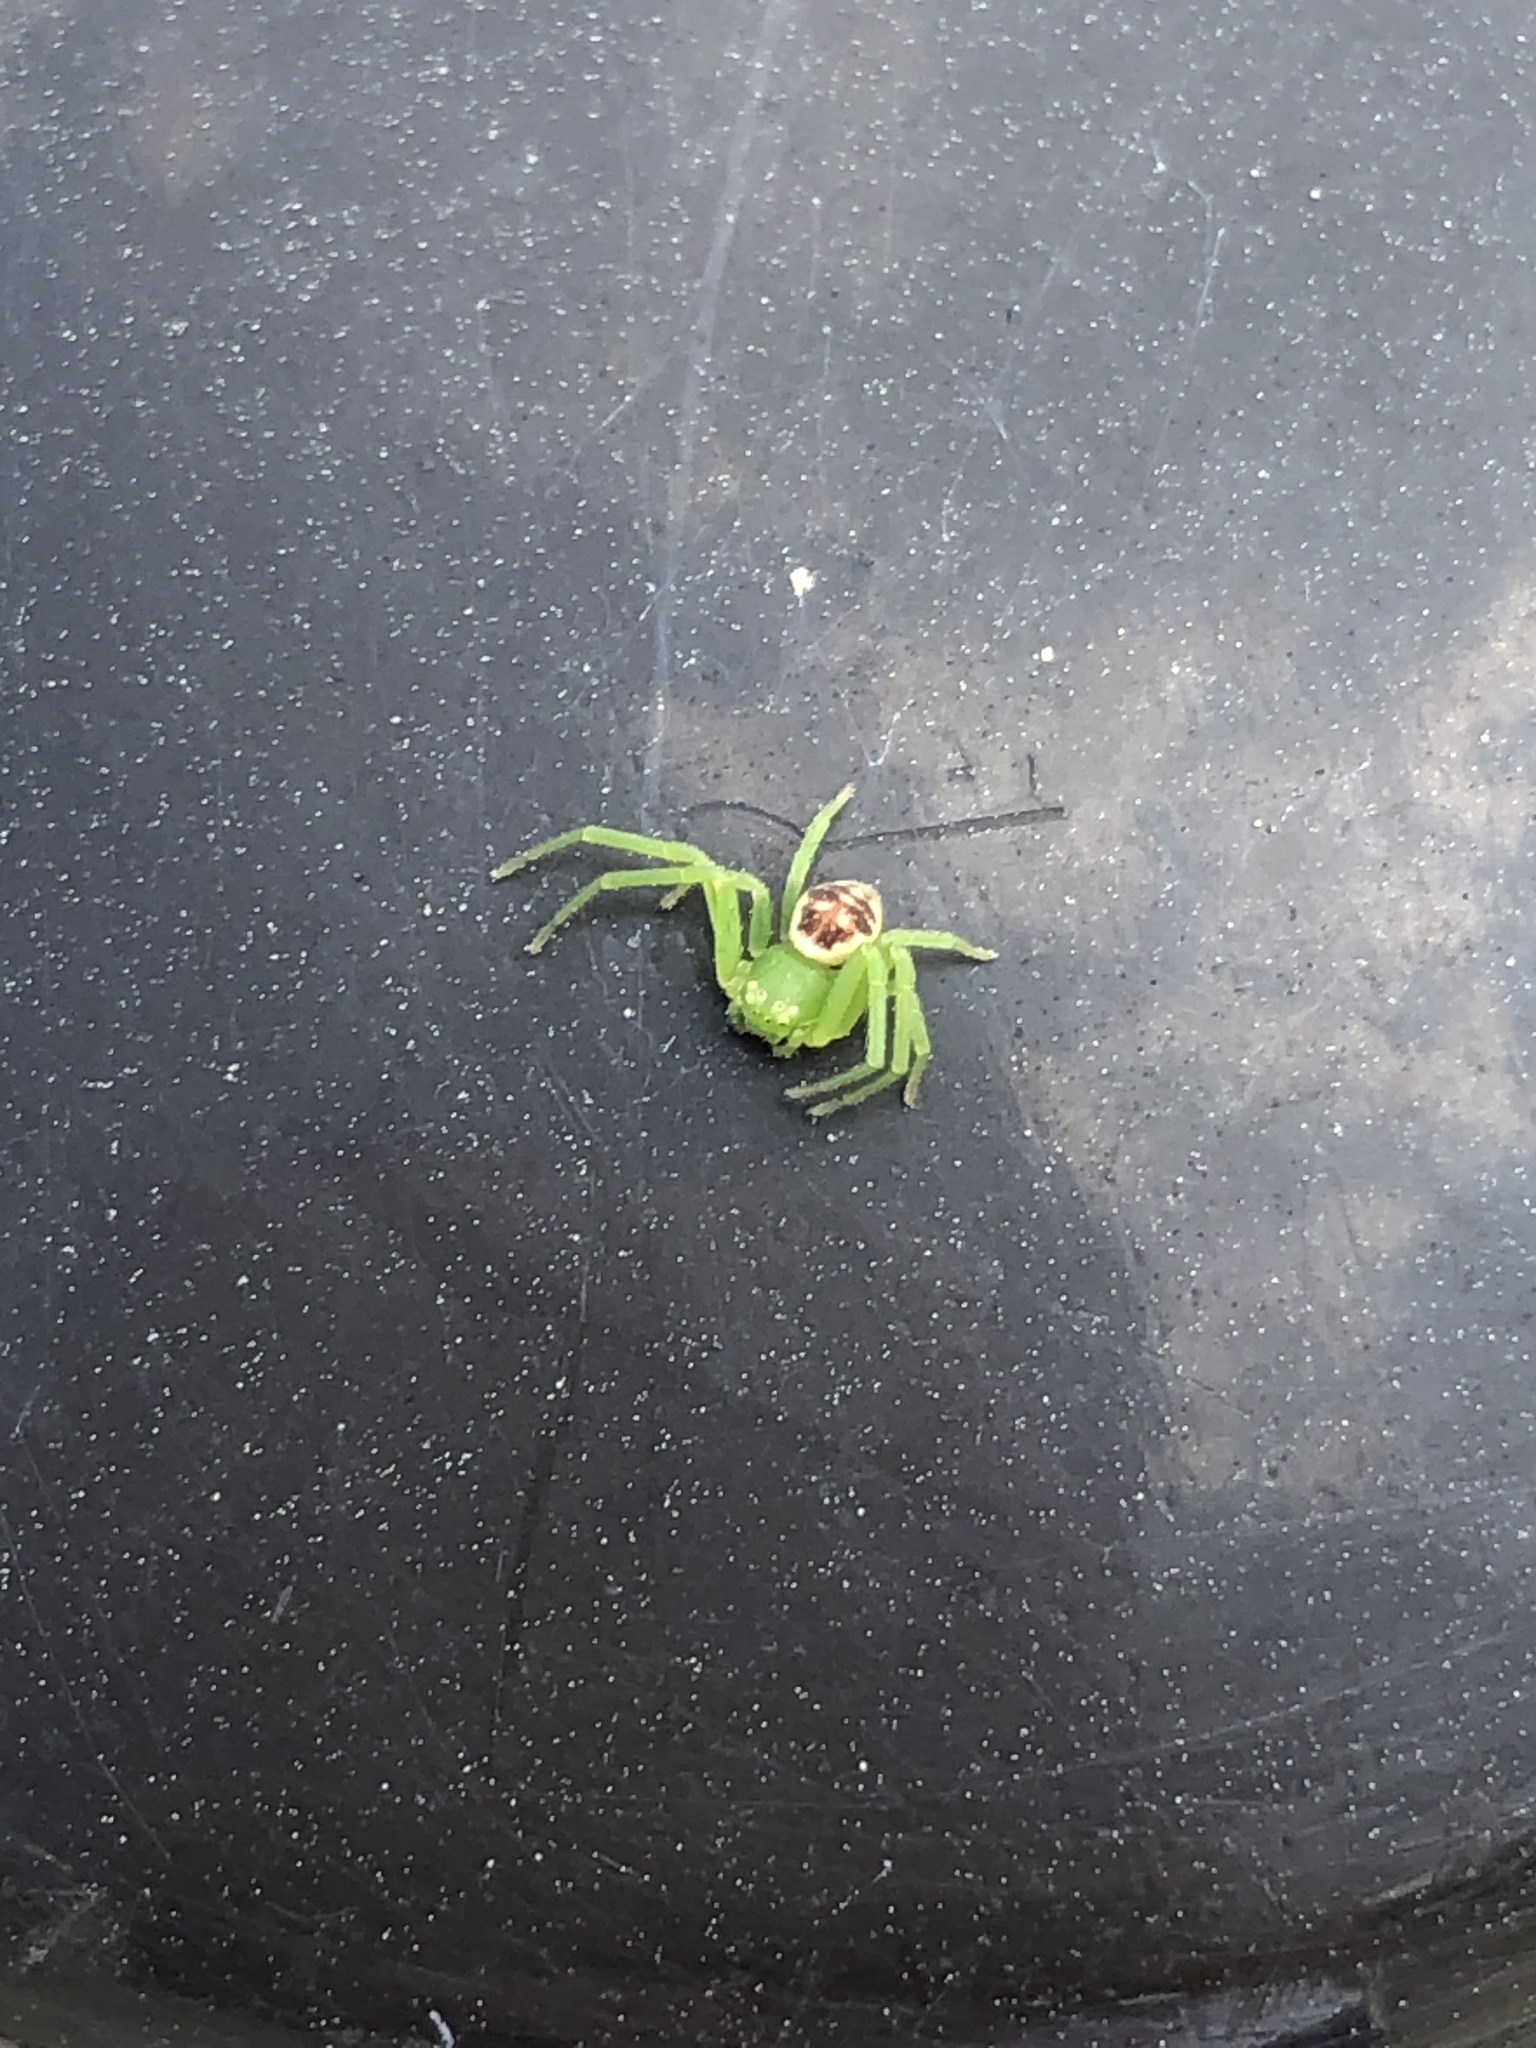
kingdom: Animalia
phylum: Arthropoda
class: Arachnida
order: Araneae
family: Thomisidae
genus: Diaea
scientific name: Diaea subdola
